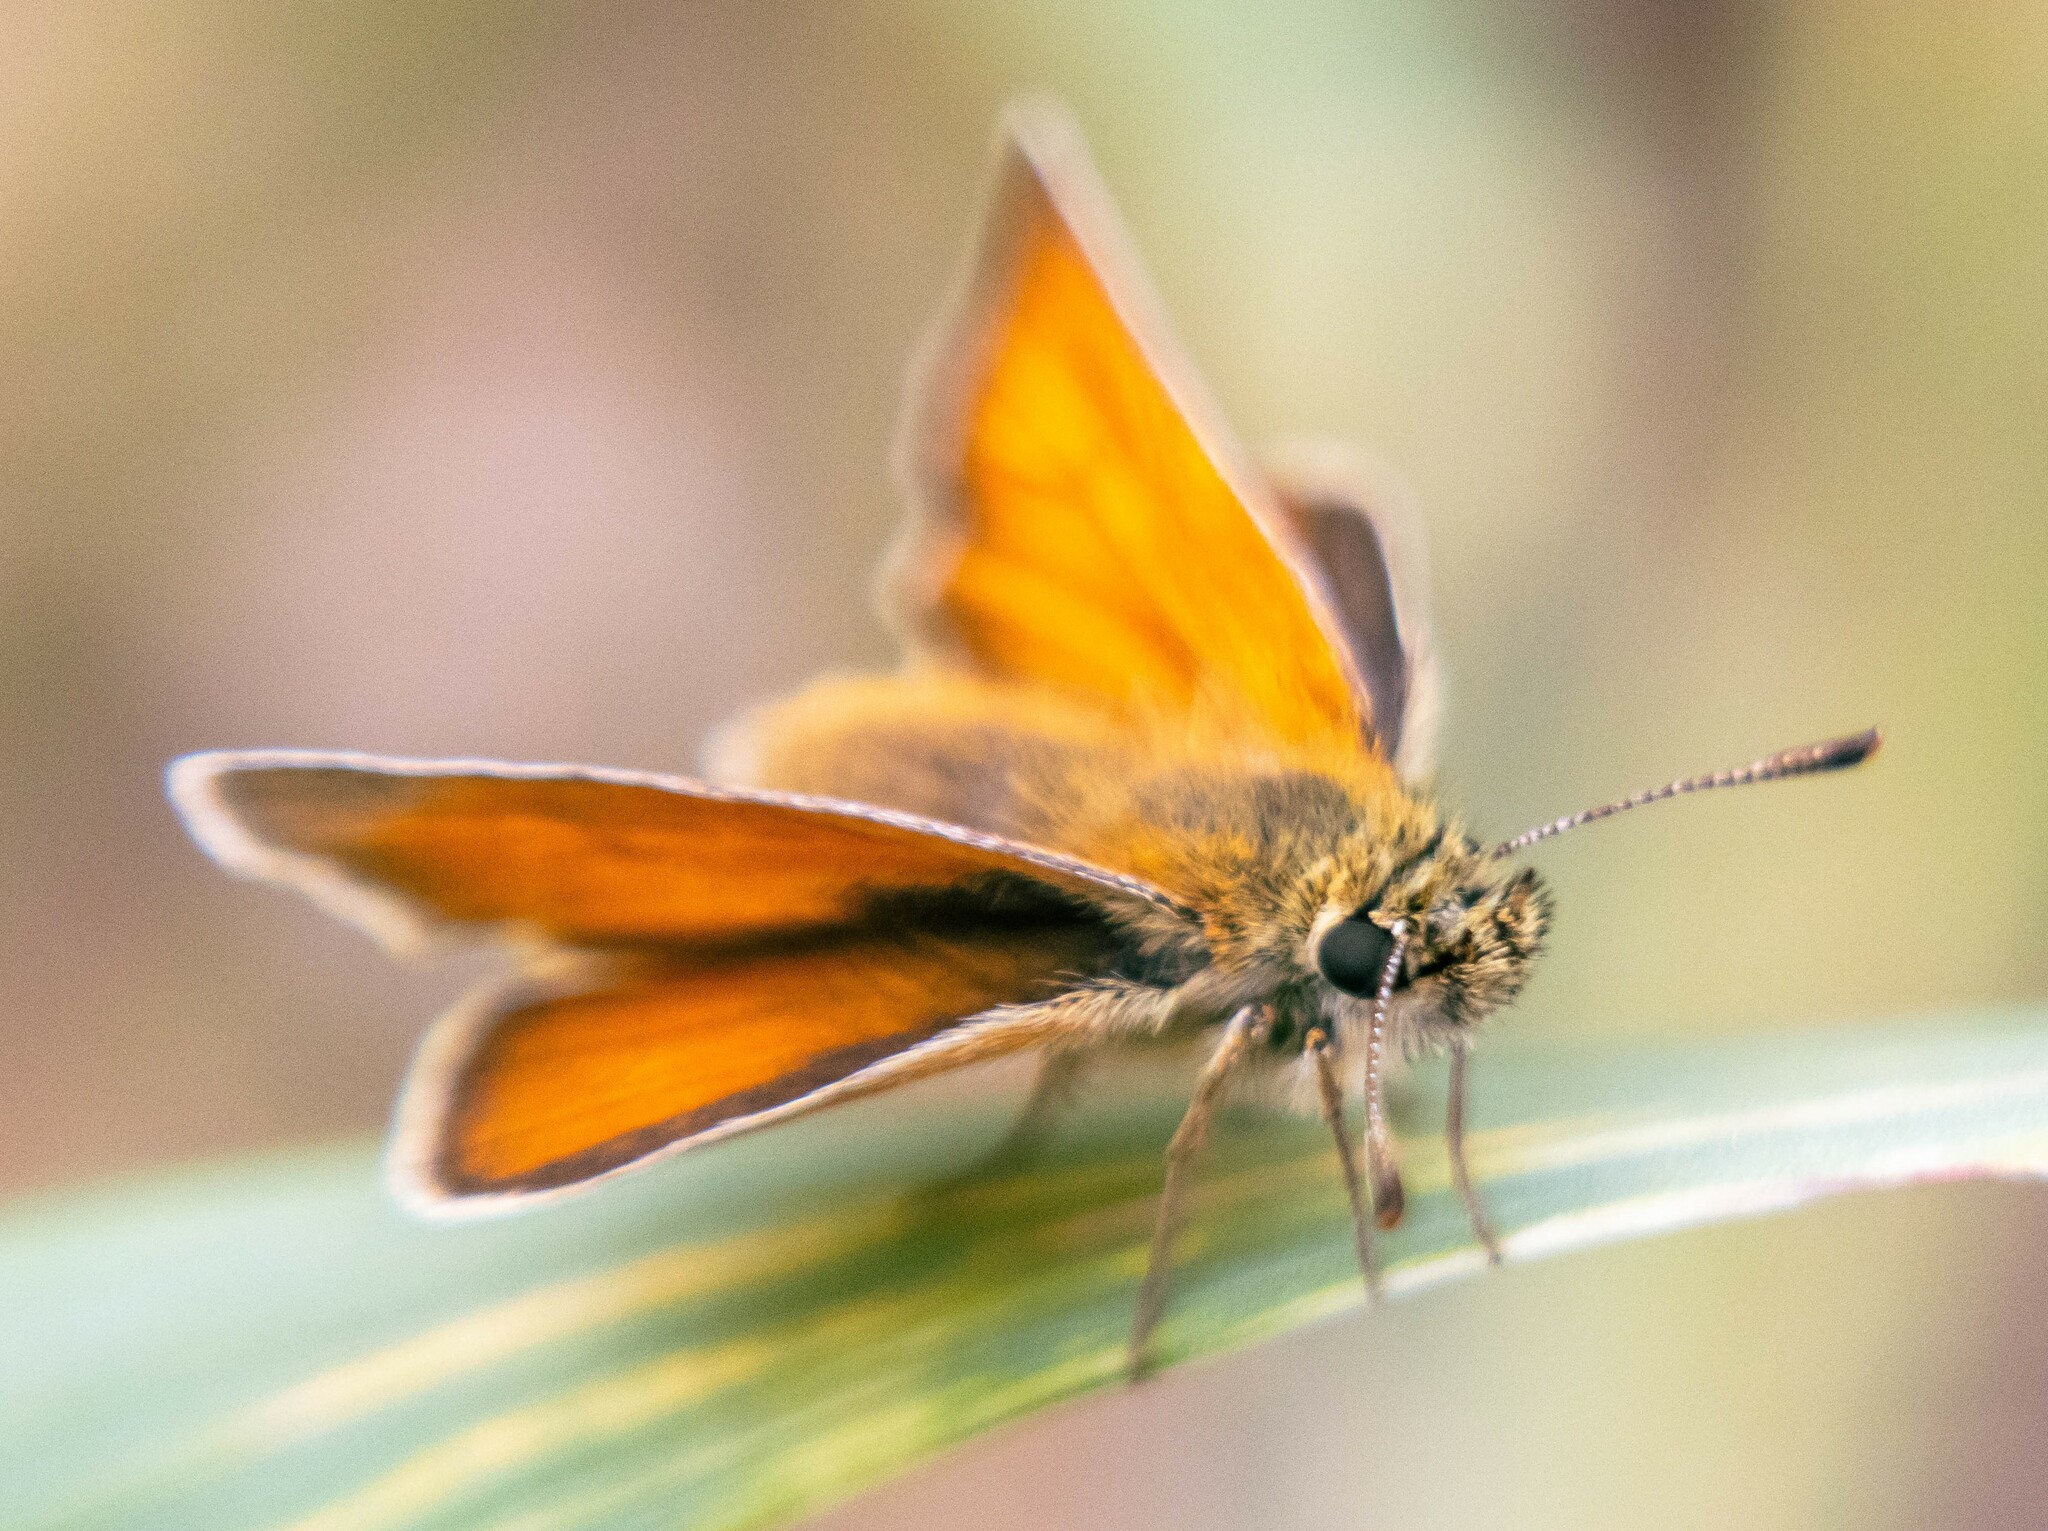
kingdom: Animalia
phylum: Arthropoda
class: Insecta
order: Lepidoptera
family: Hesperiidae
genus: Thymelicus
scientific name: Thymelicus sylvestris
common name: Small skipper
